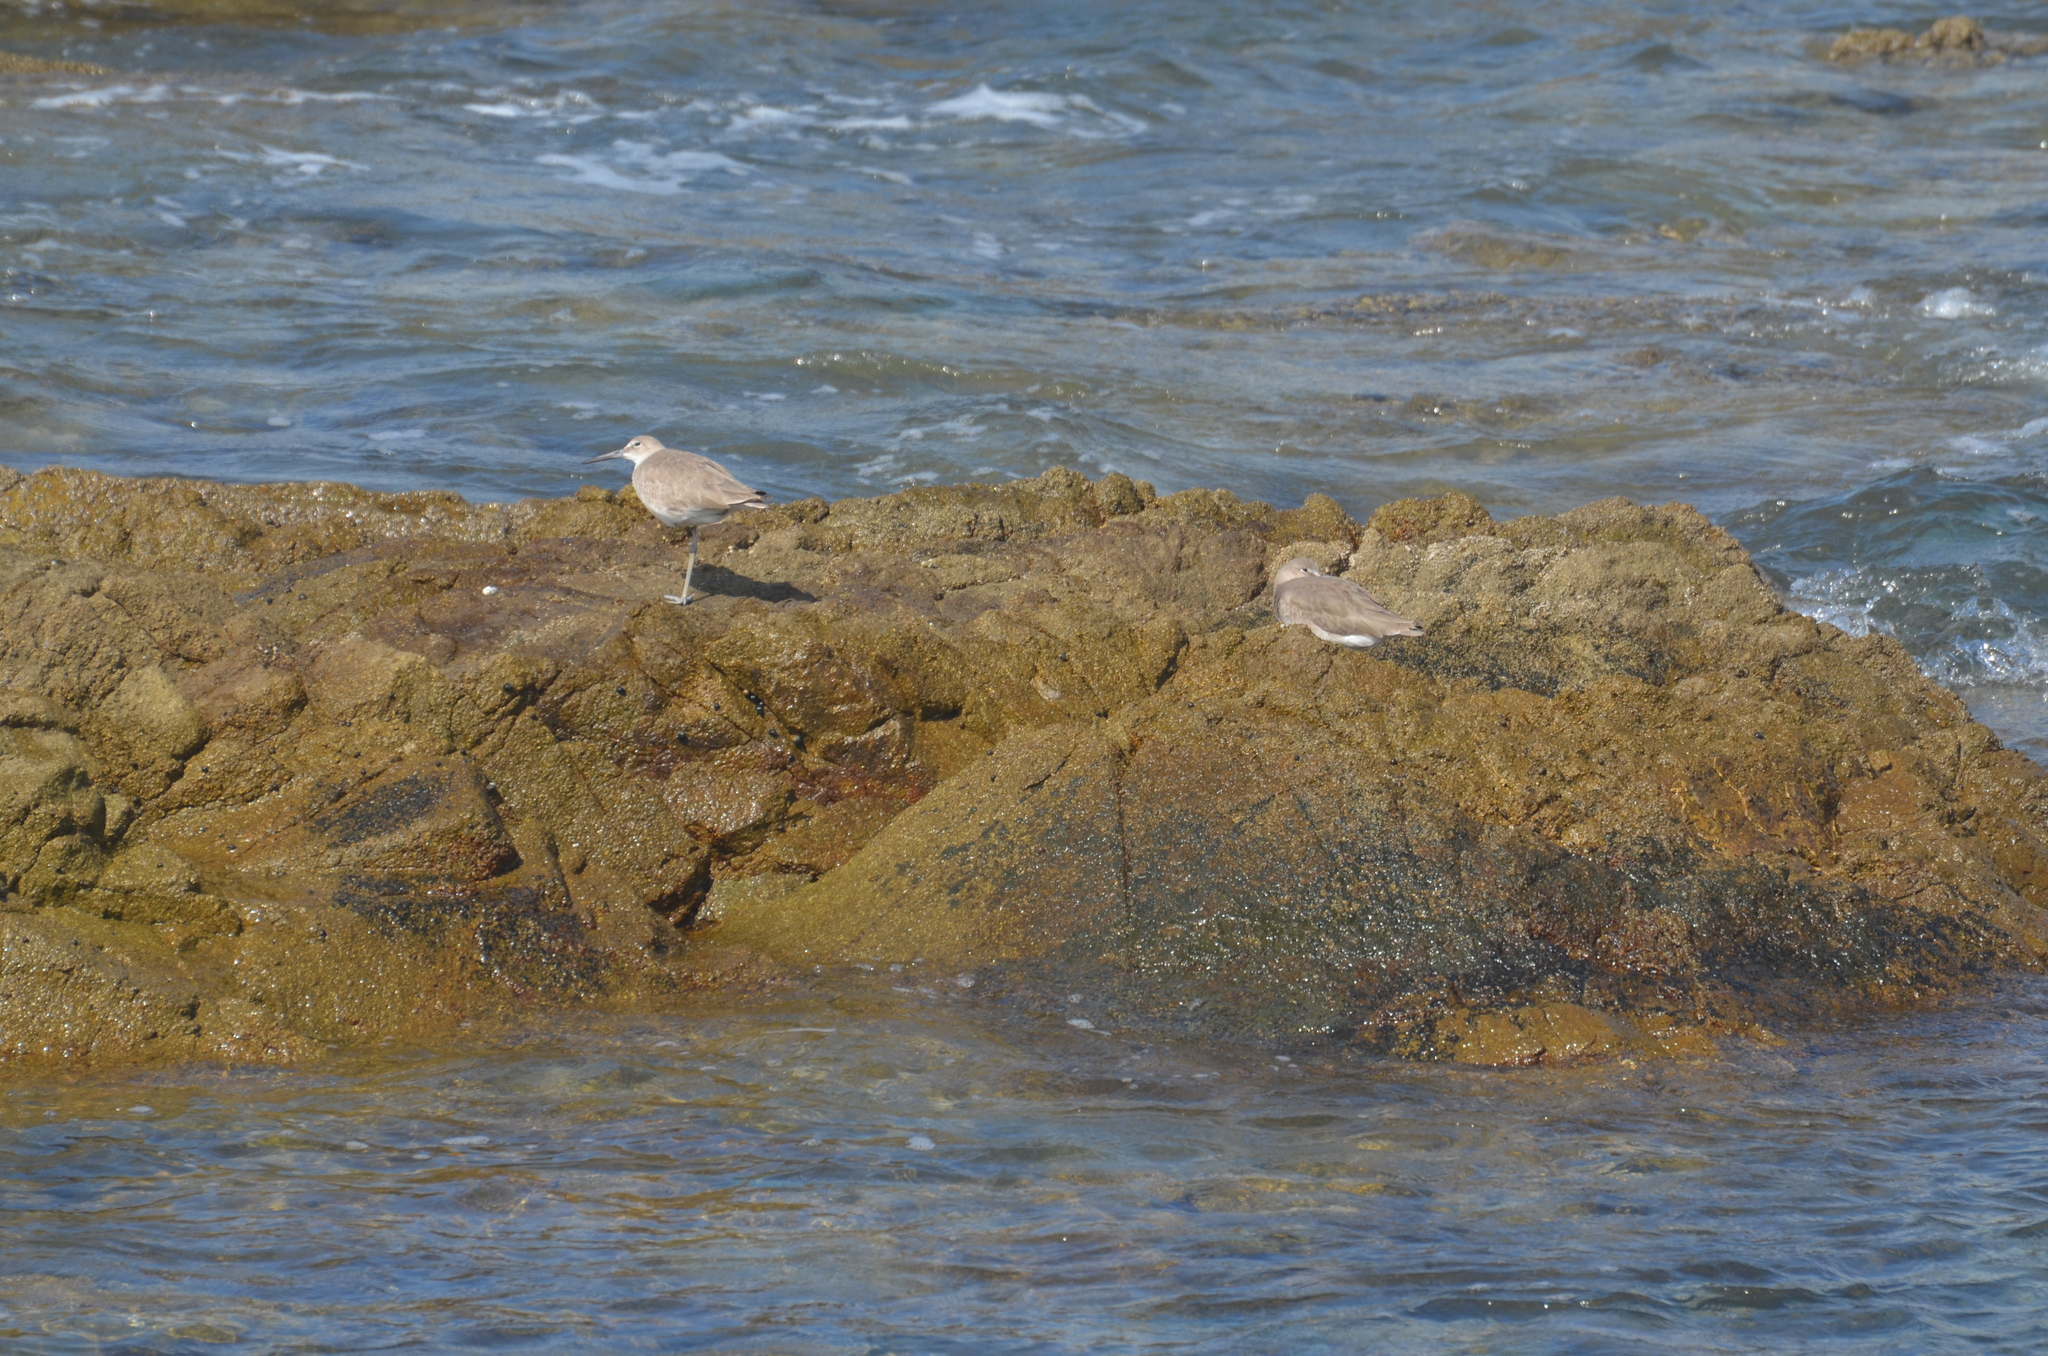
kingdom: Animalia
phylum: Chordata
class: Aves
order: Charadriiformes
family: Scolopacidae
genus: Tringa
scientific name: Tringa semipalmata
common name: Willet
